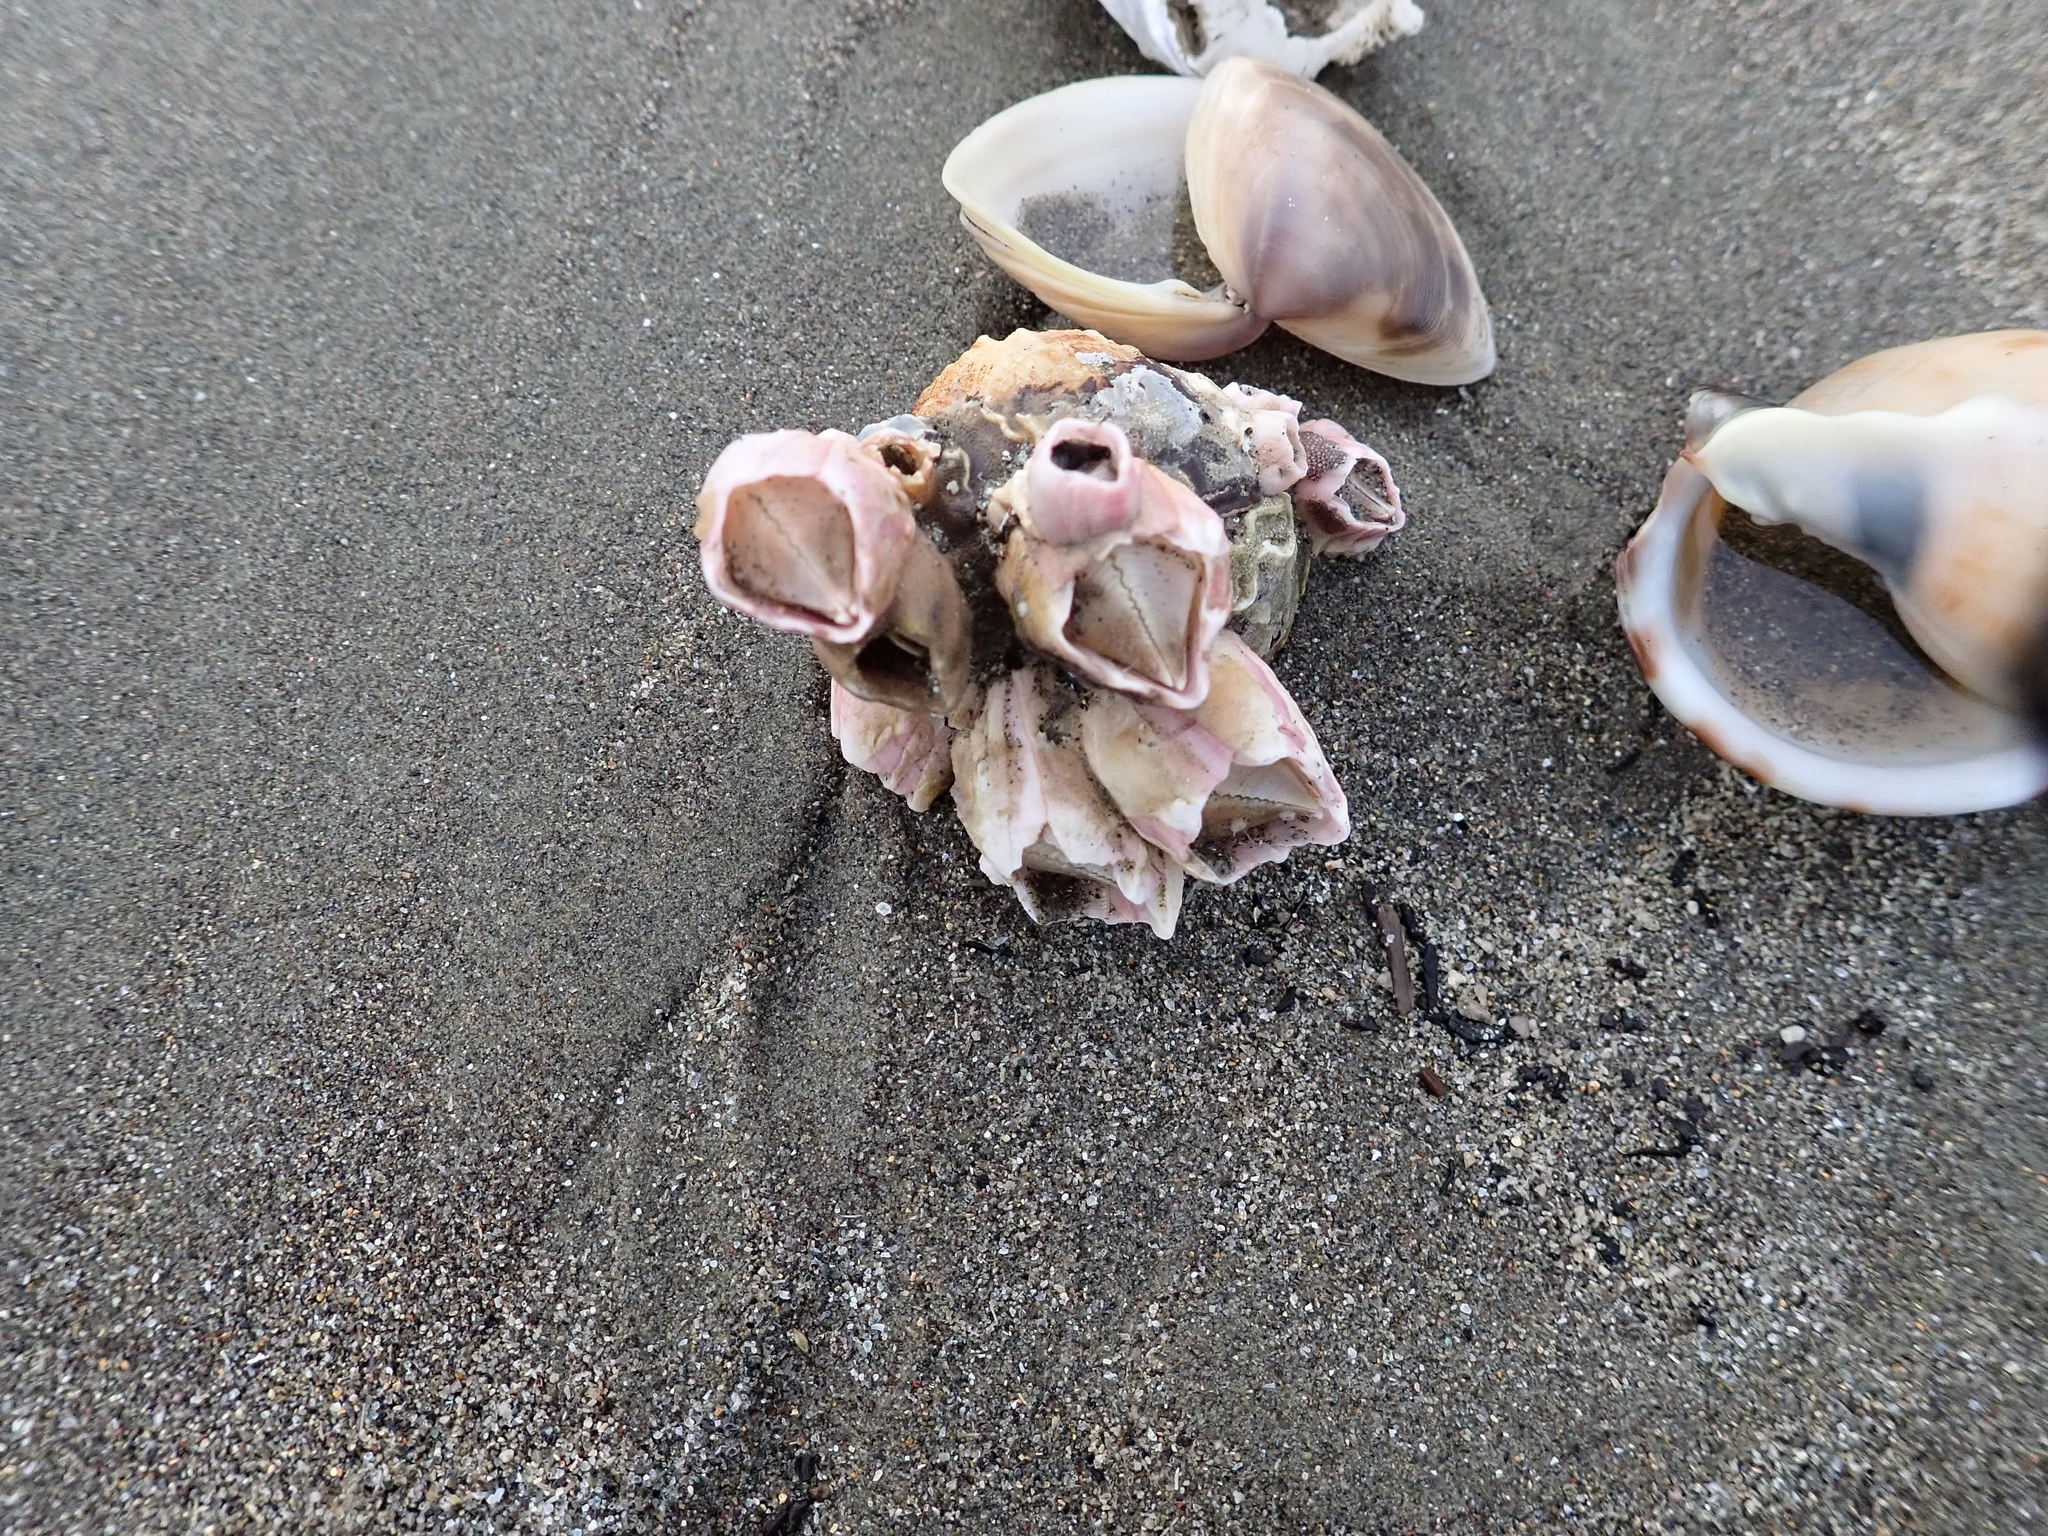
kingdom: Animalia
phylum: Arthropoda
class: Maxillopoda
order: Sessilia
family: Balanidae
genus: Notomegabalanus
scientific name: Notomegabalanus decorus
